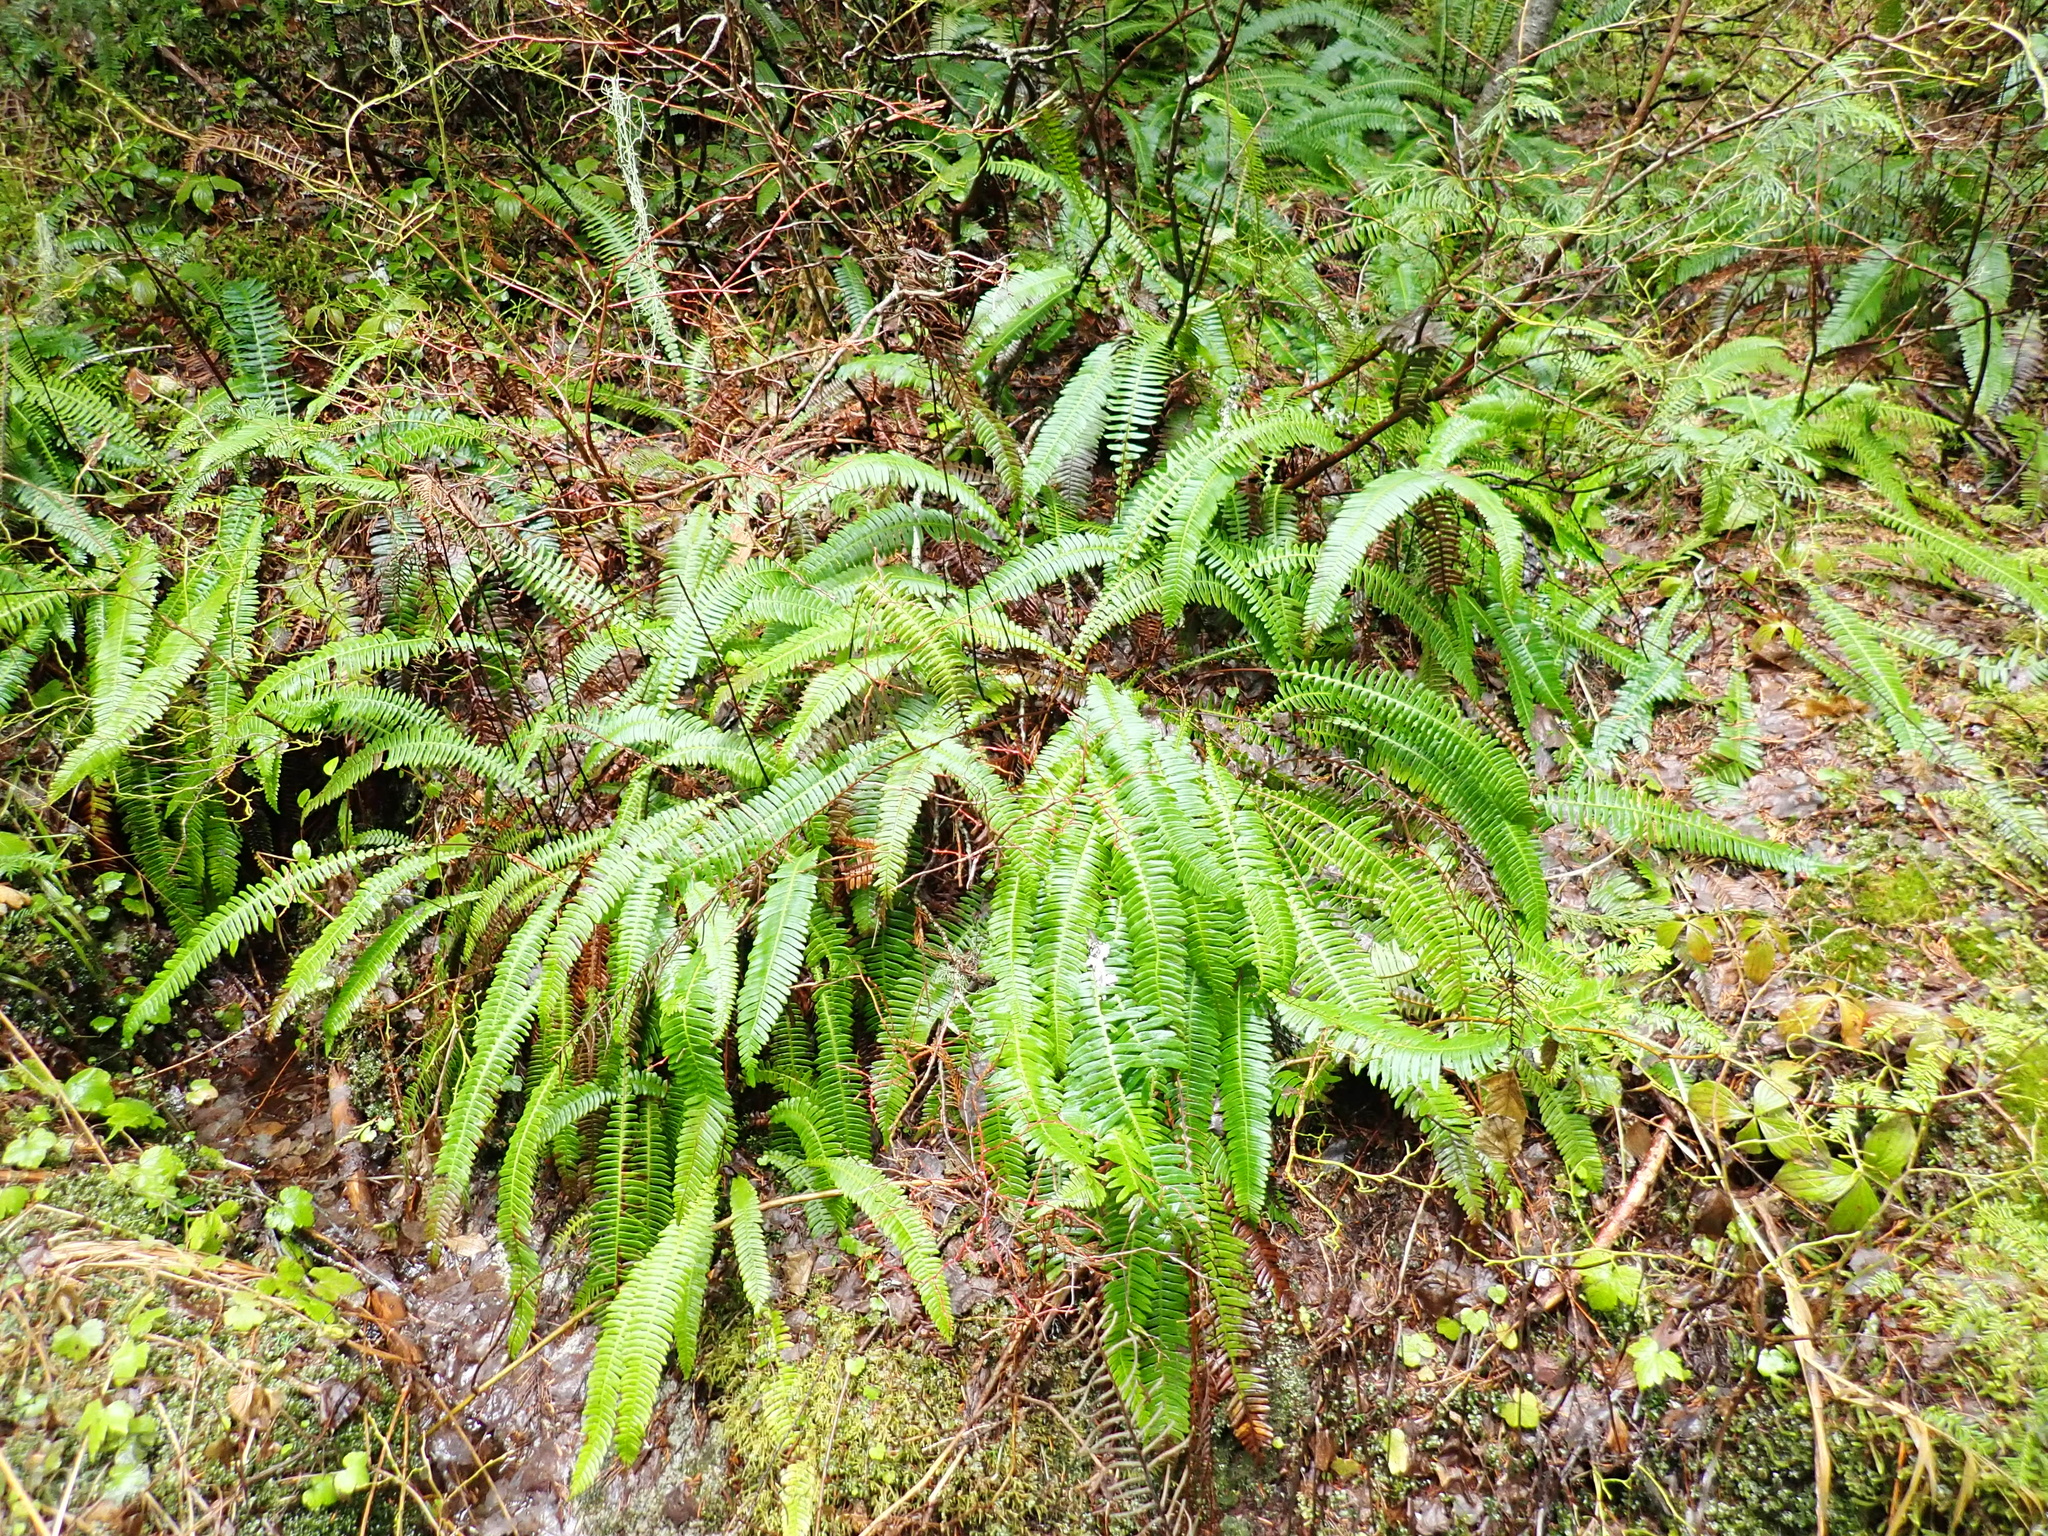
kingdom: Plantae
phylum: Tracheophyta
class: Polypodiopsida
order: Polypodiales
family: Blechnaceae
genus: Struthiopteris
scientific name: Struthiopteris spicant
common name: Deer fern
